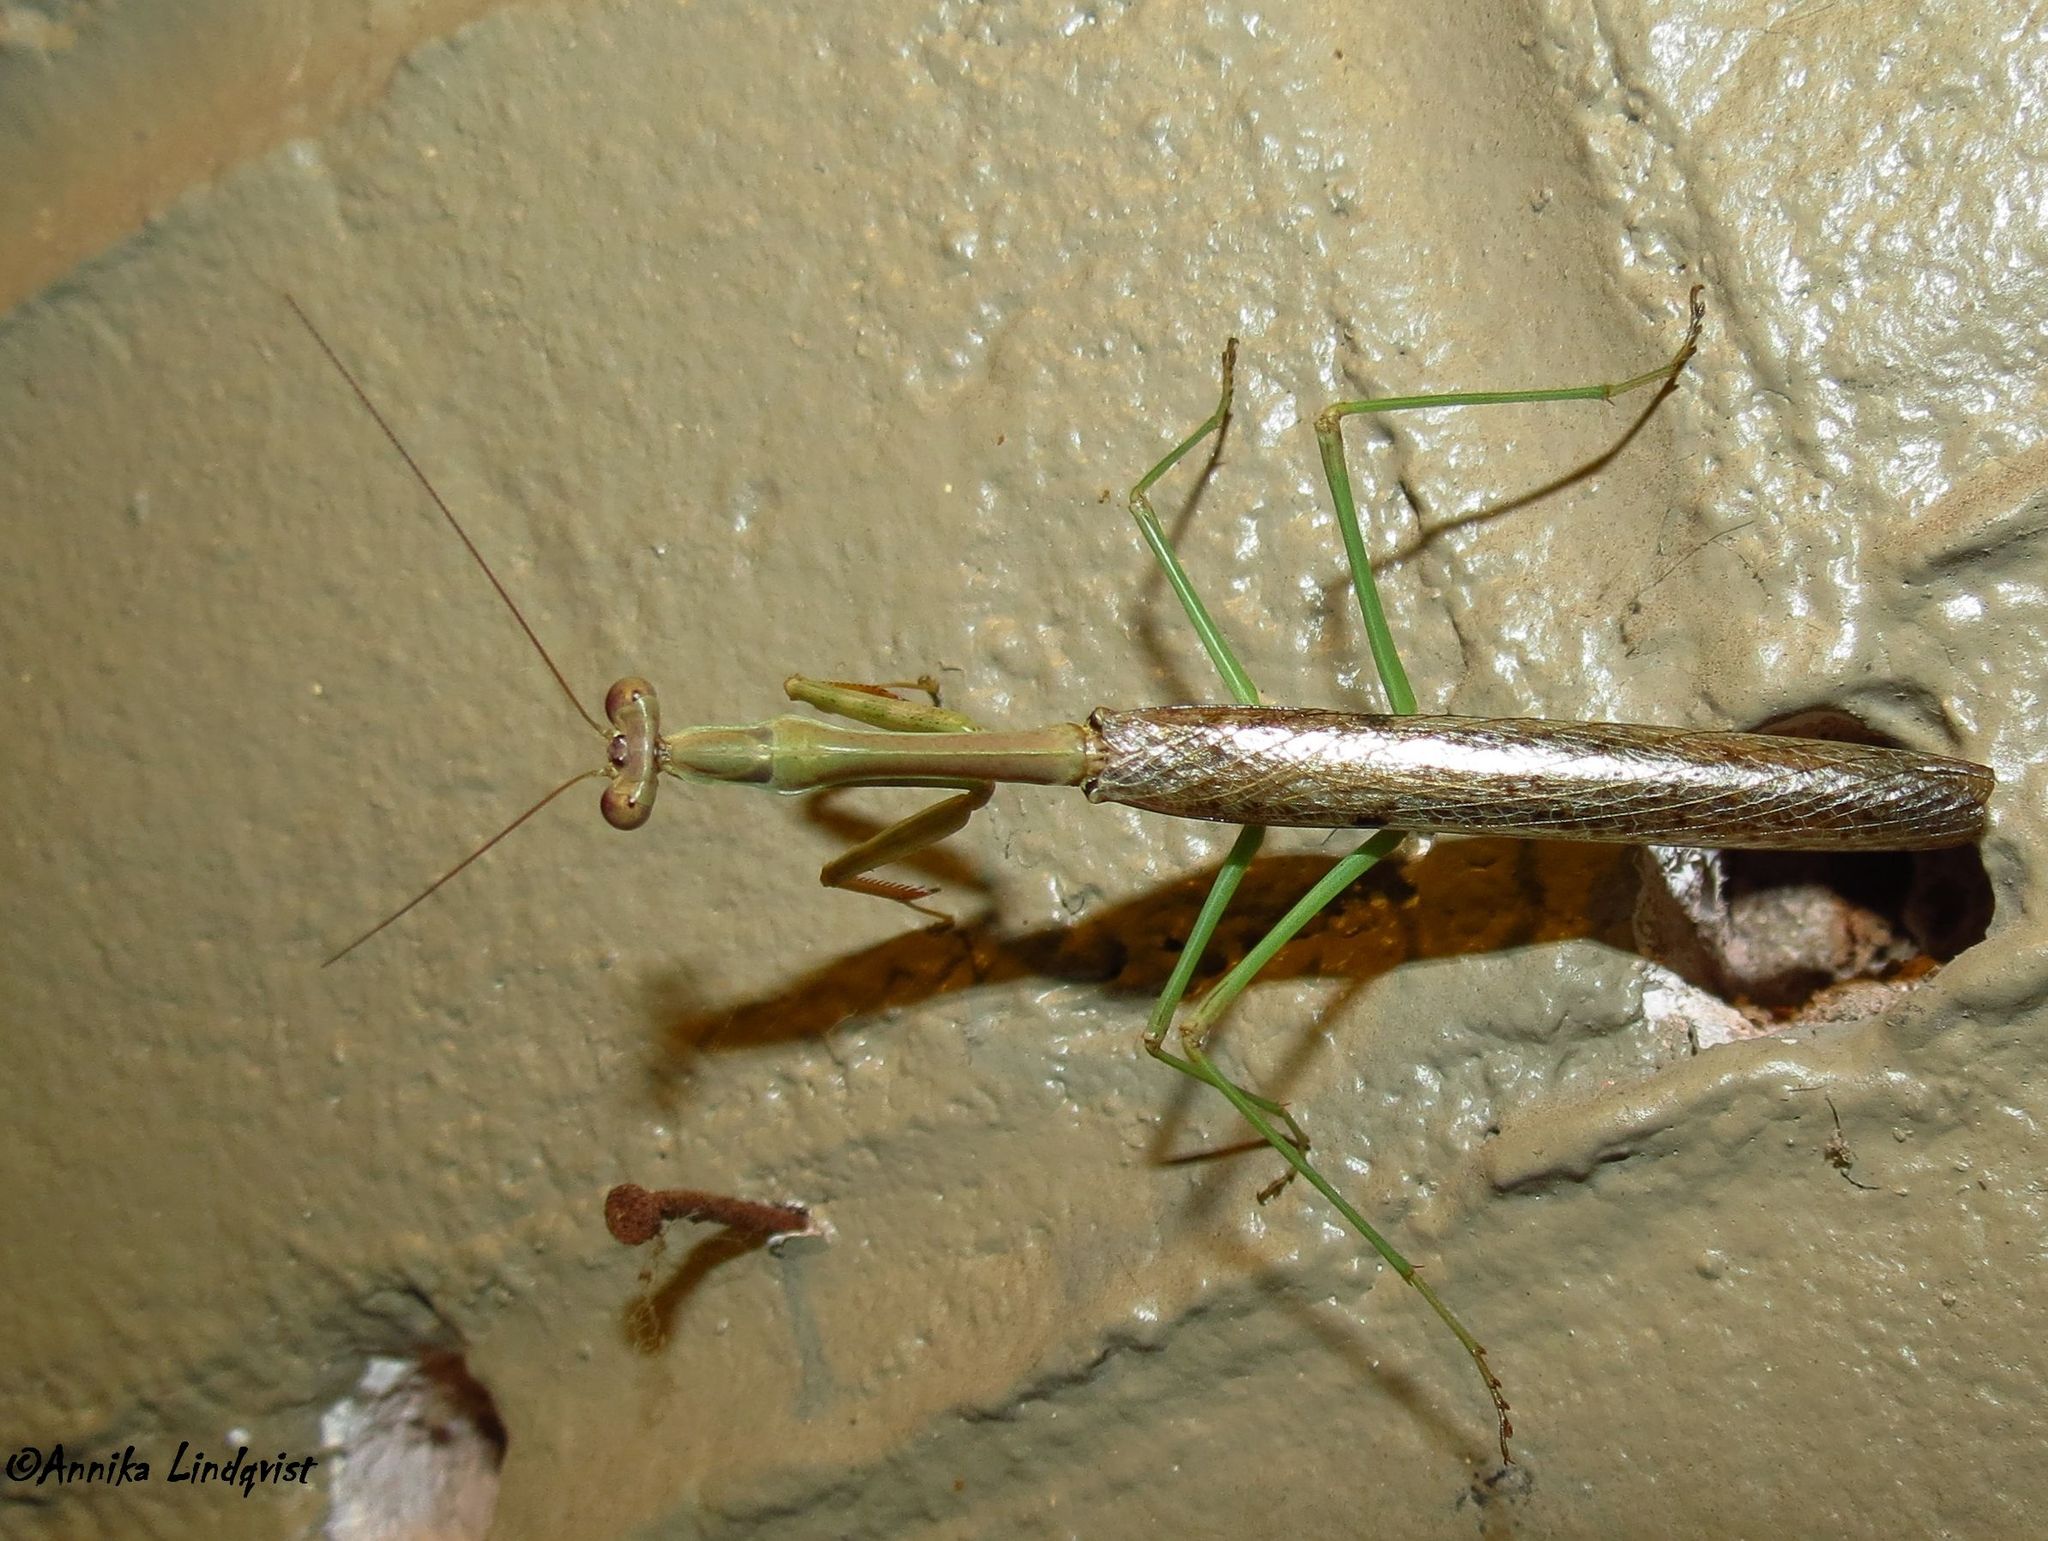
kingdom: Animalia
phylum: Arthropoda
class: Insecta
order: Mantodea
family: Mantidae
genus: Stagmomantis
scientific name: Stagmomantis carolina
